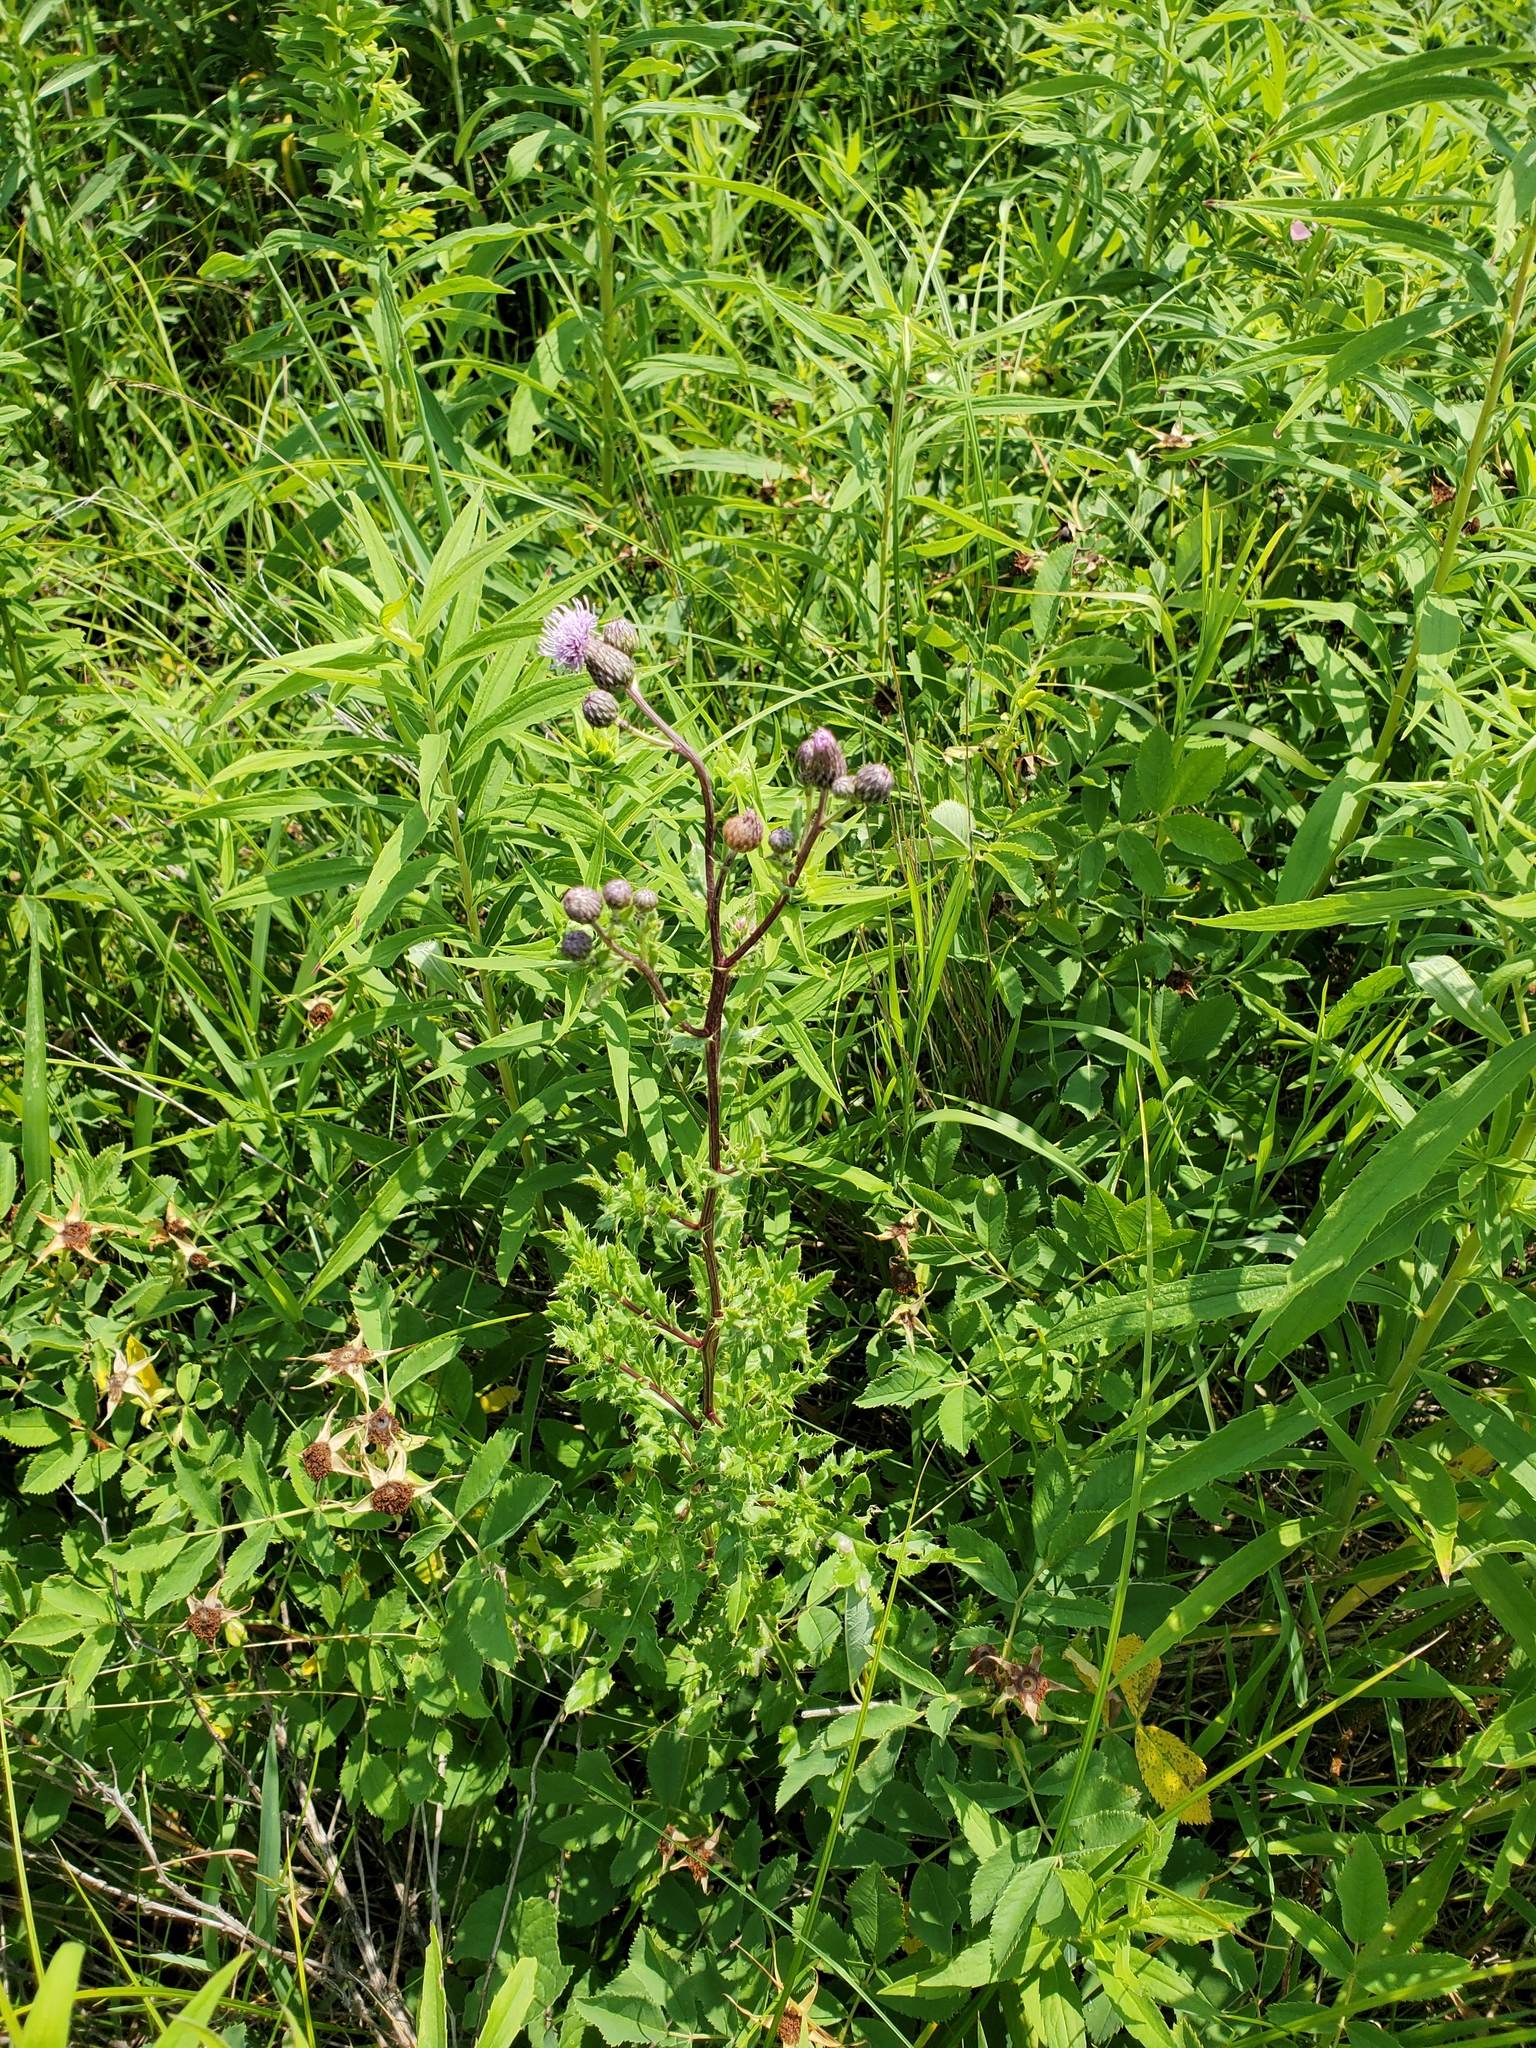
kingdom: Plantae
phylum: Tracheophyta
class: Magnoliopsida
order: Asterales
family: Asteraceae
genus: Cirsium
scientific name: Cirsium arvense
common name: Creeping thistle
